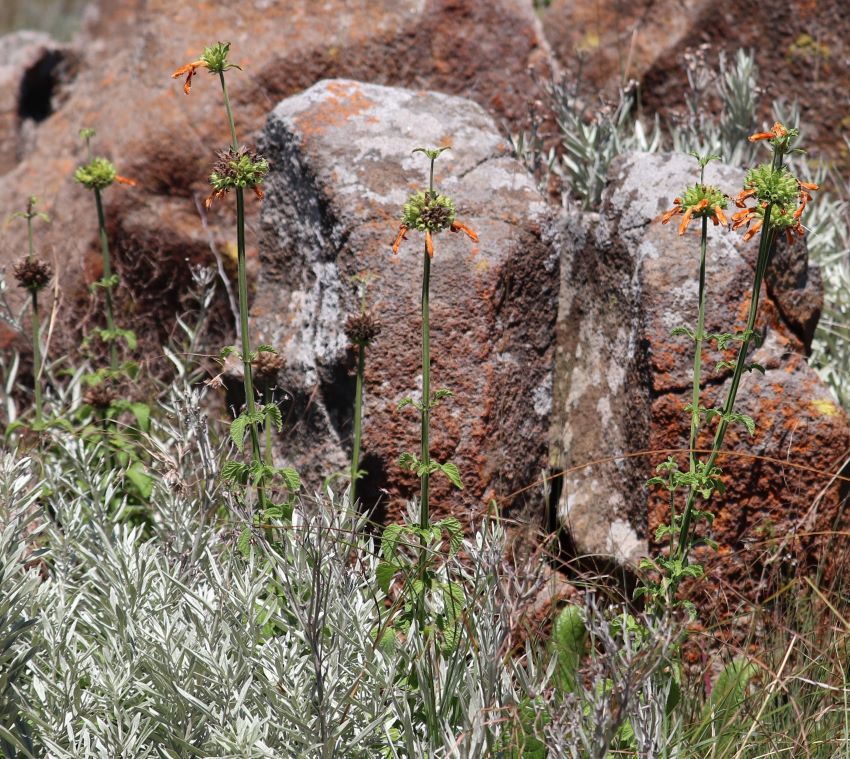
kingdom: Plantae
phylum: Tracheophyta
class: Magnoliopsida
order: Lamiales
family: Lamiaceae
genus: Leonotis
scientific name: Leonotis ocymifolia
